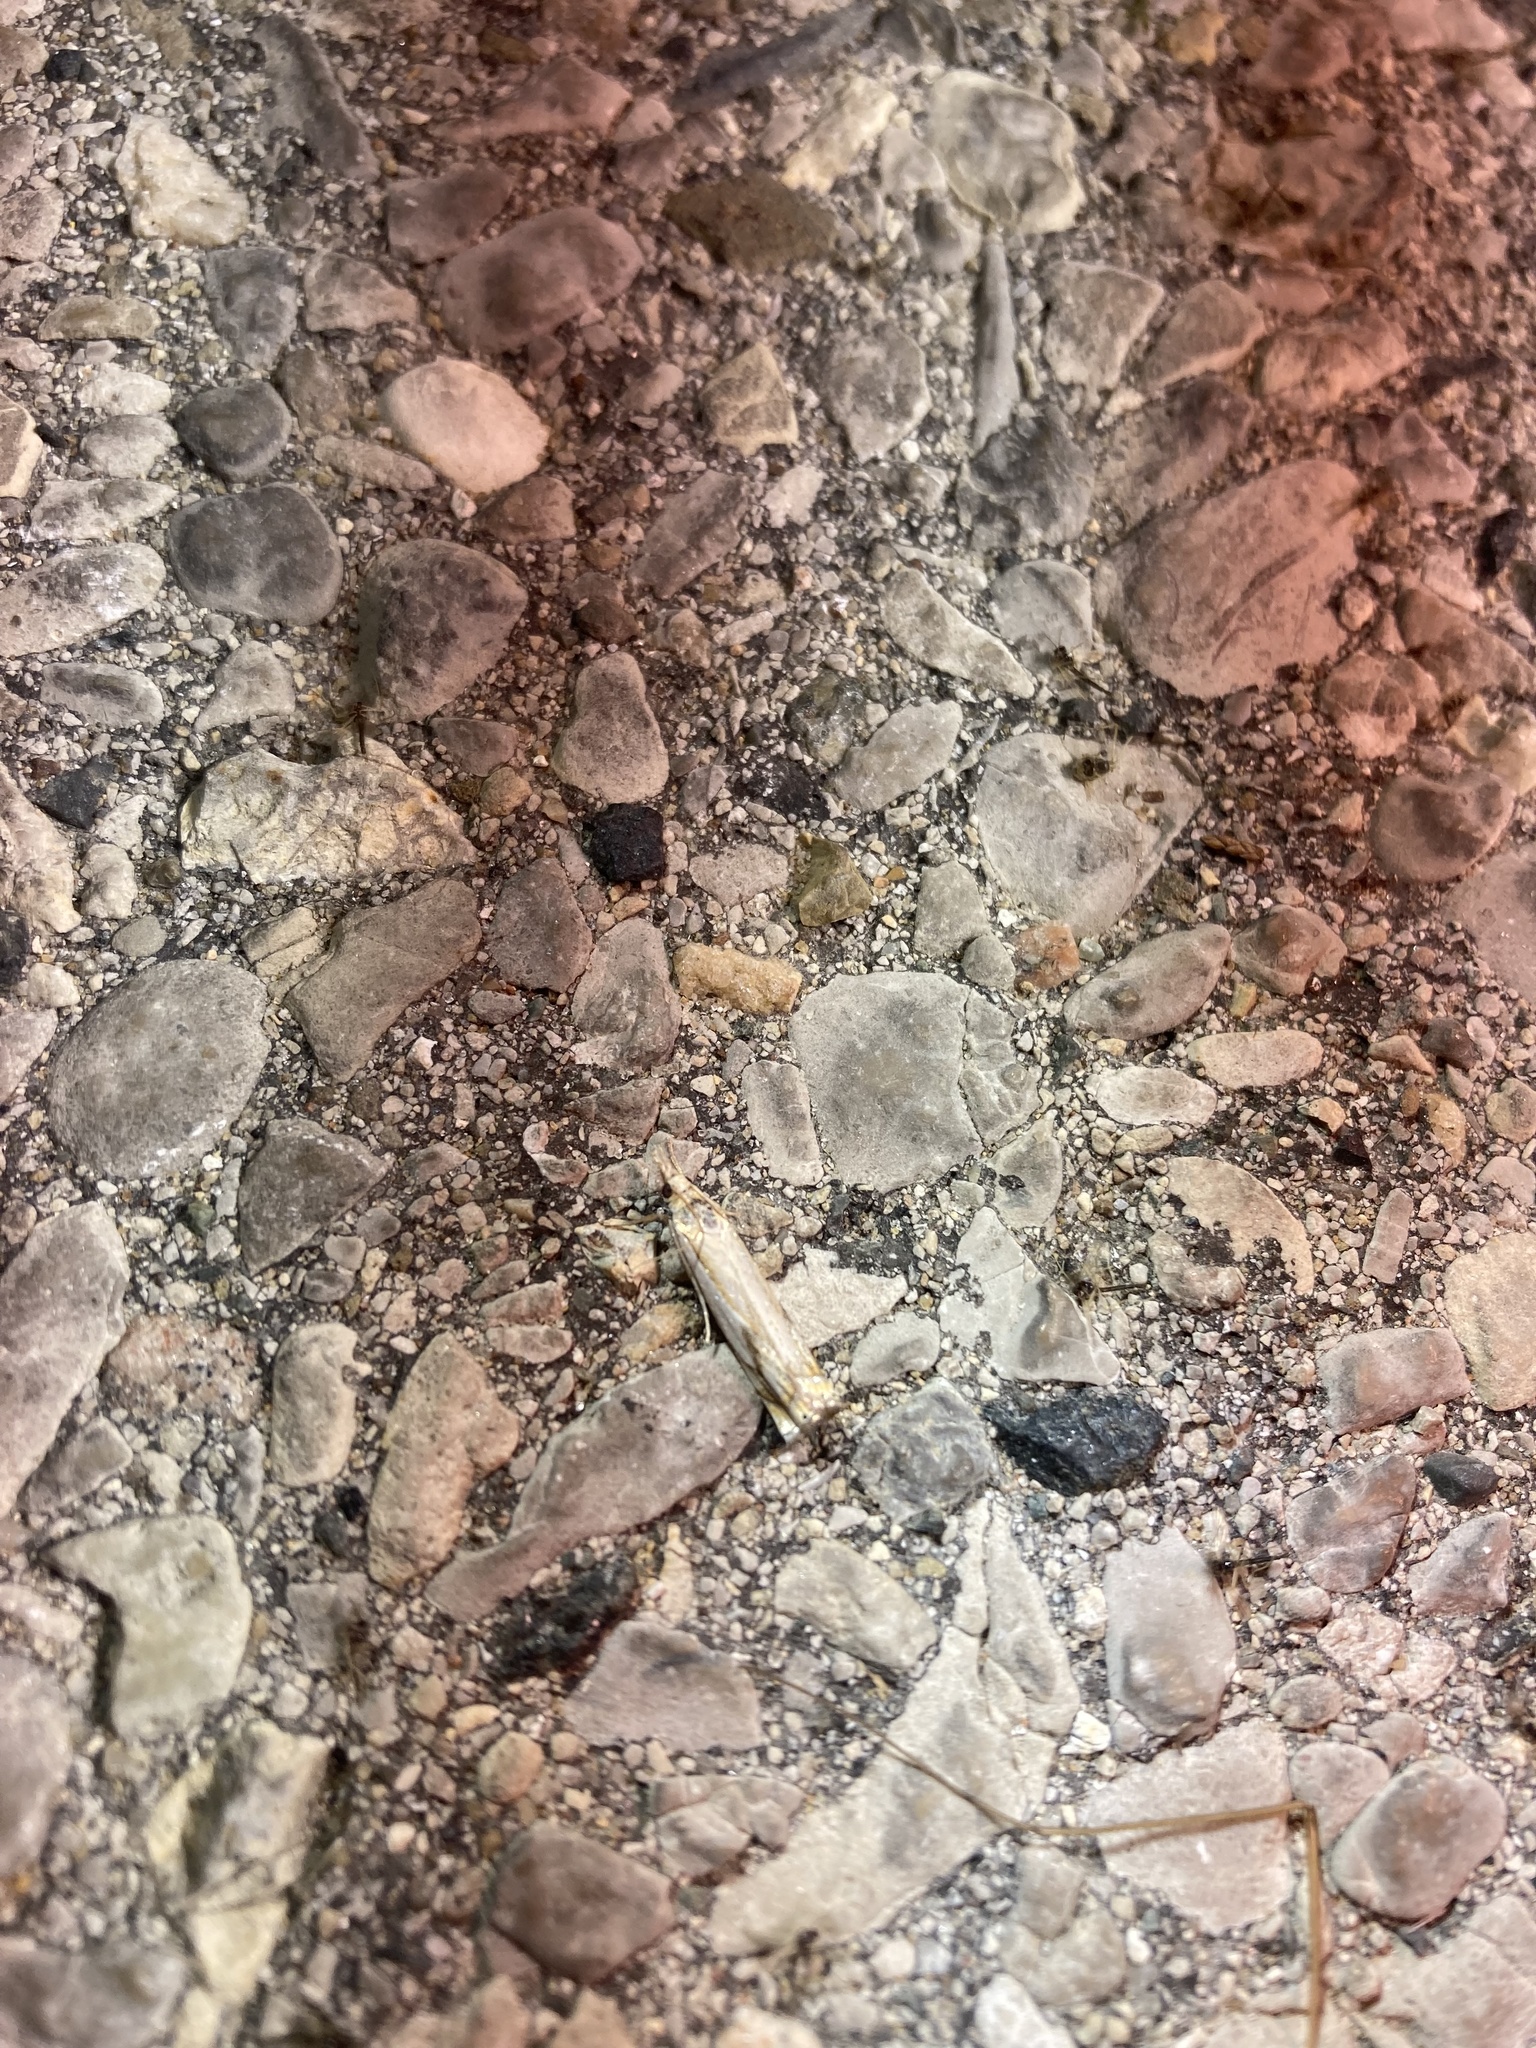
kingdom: Animalia
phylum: Arthropoda
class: Insecta
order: Lepidoptera
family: Crambidae
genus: Crambus
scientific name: Crambus agitatellus
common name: Double-banded grass-veneer
